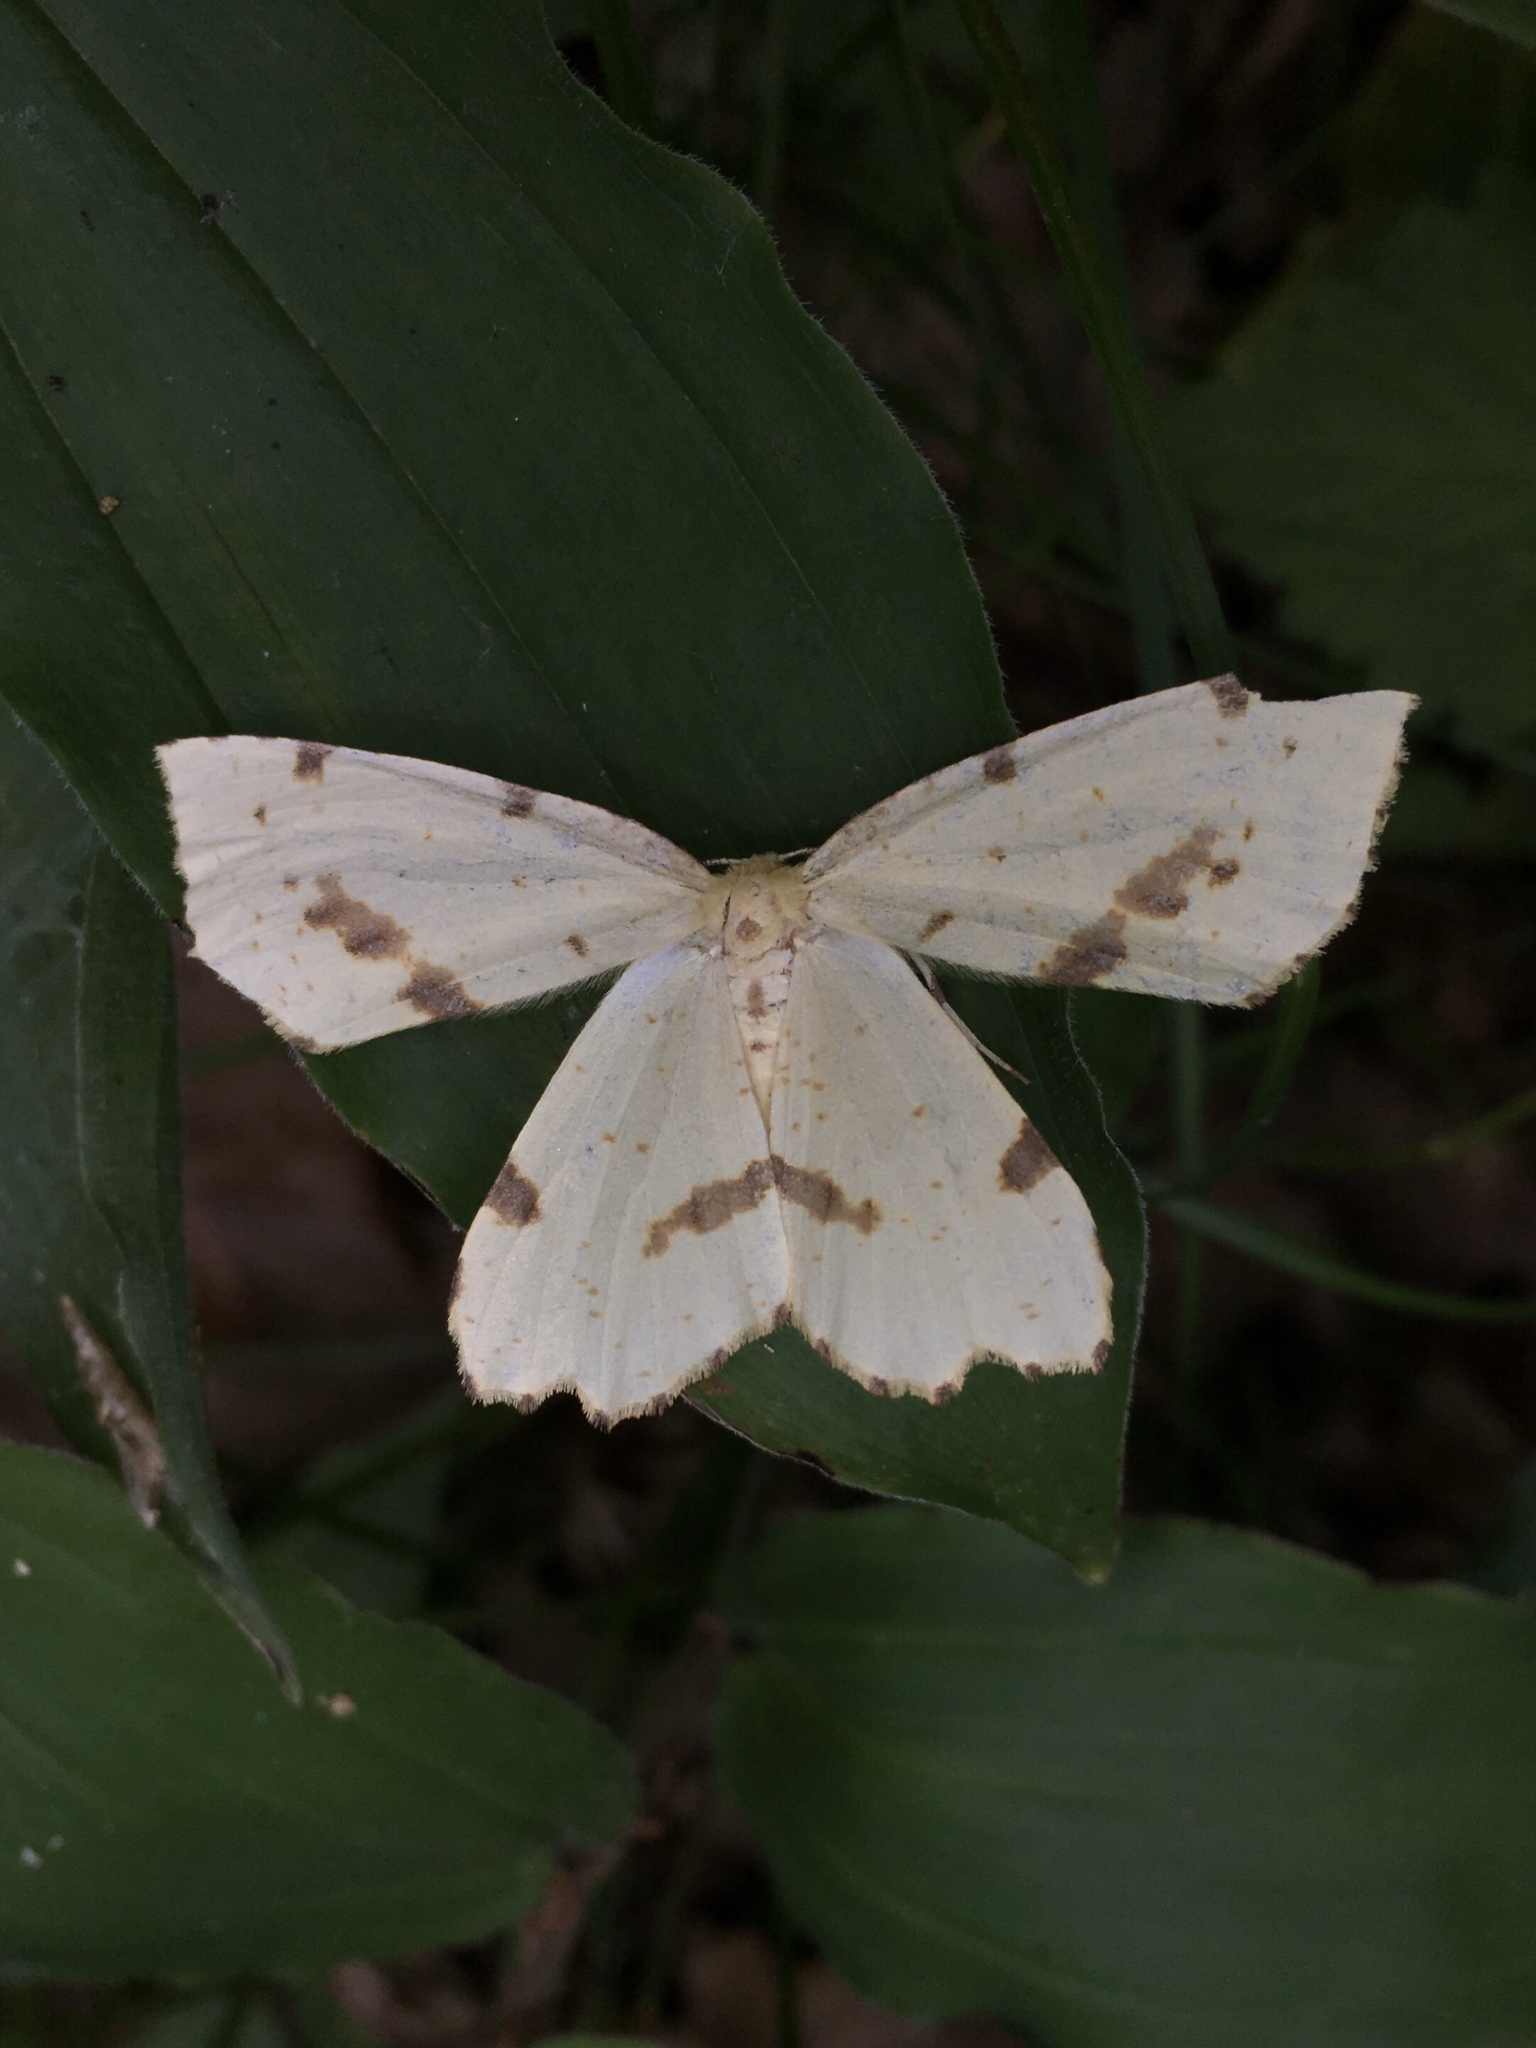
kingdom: Animalia
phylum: Arthropoda
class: Insecta
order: Lepidoptera
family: Geometridae
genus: Xanthotype
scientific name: Xanthotype
